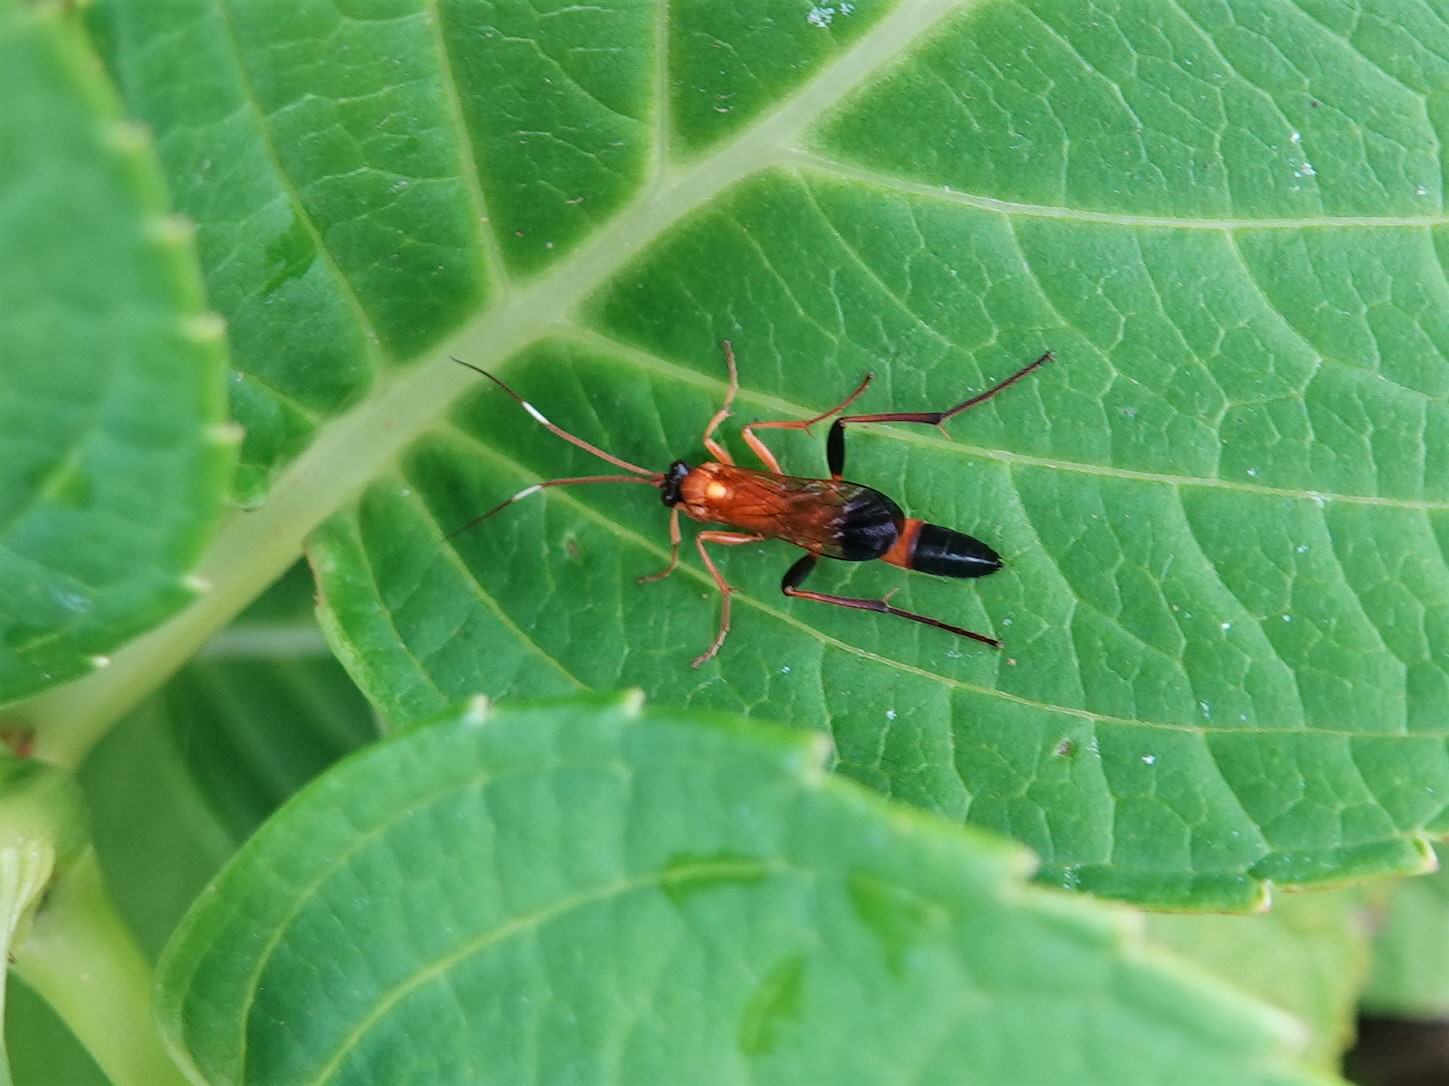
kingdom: Animalia
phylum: Arthropoda
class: Insecta
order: Hymenoptera
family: Ichneumonidae
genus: Ctenochares
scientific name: Ctenochares bicolorus
